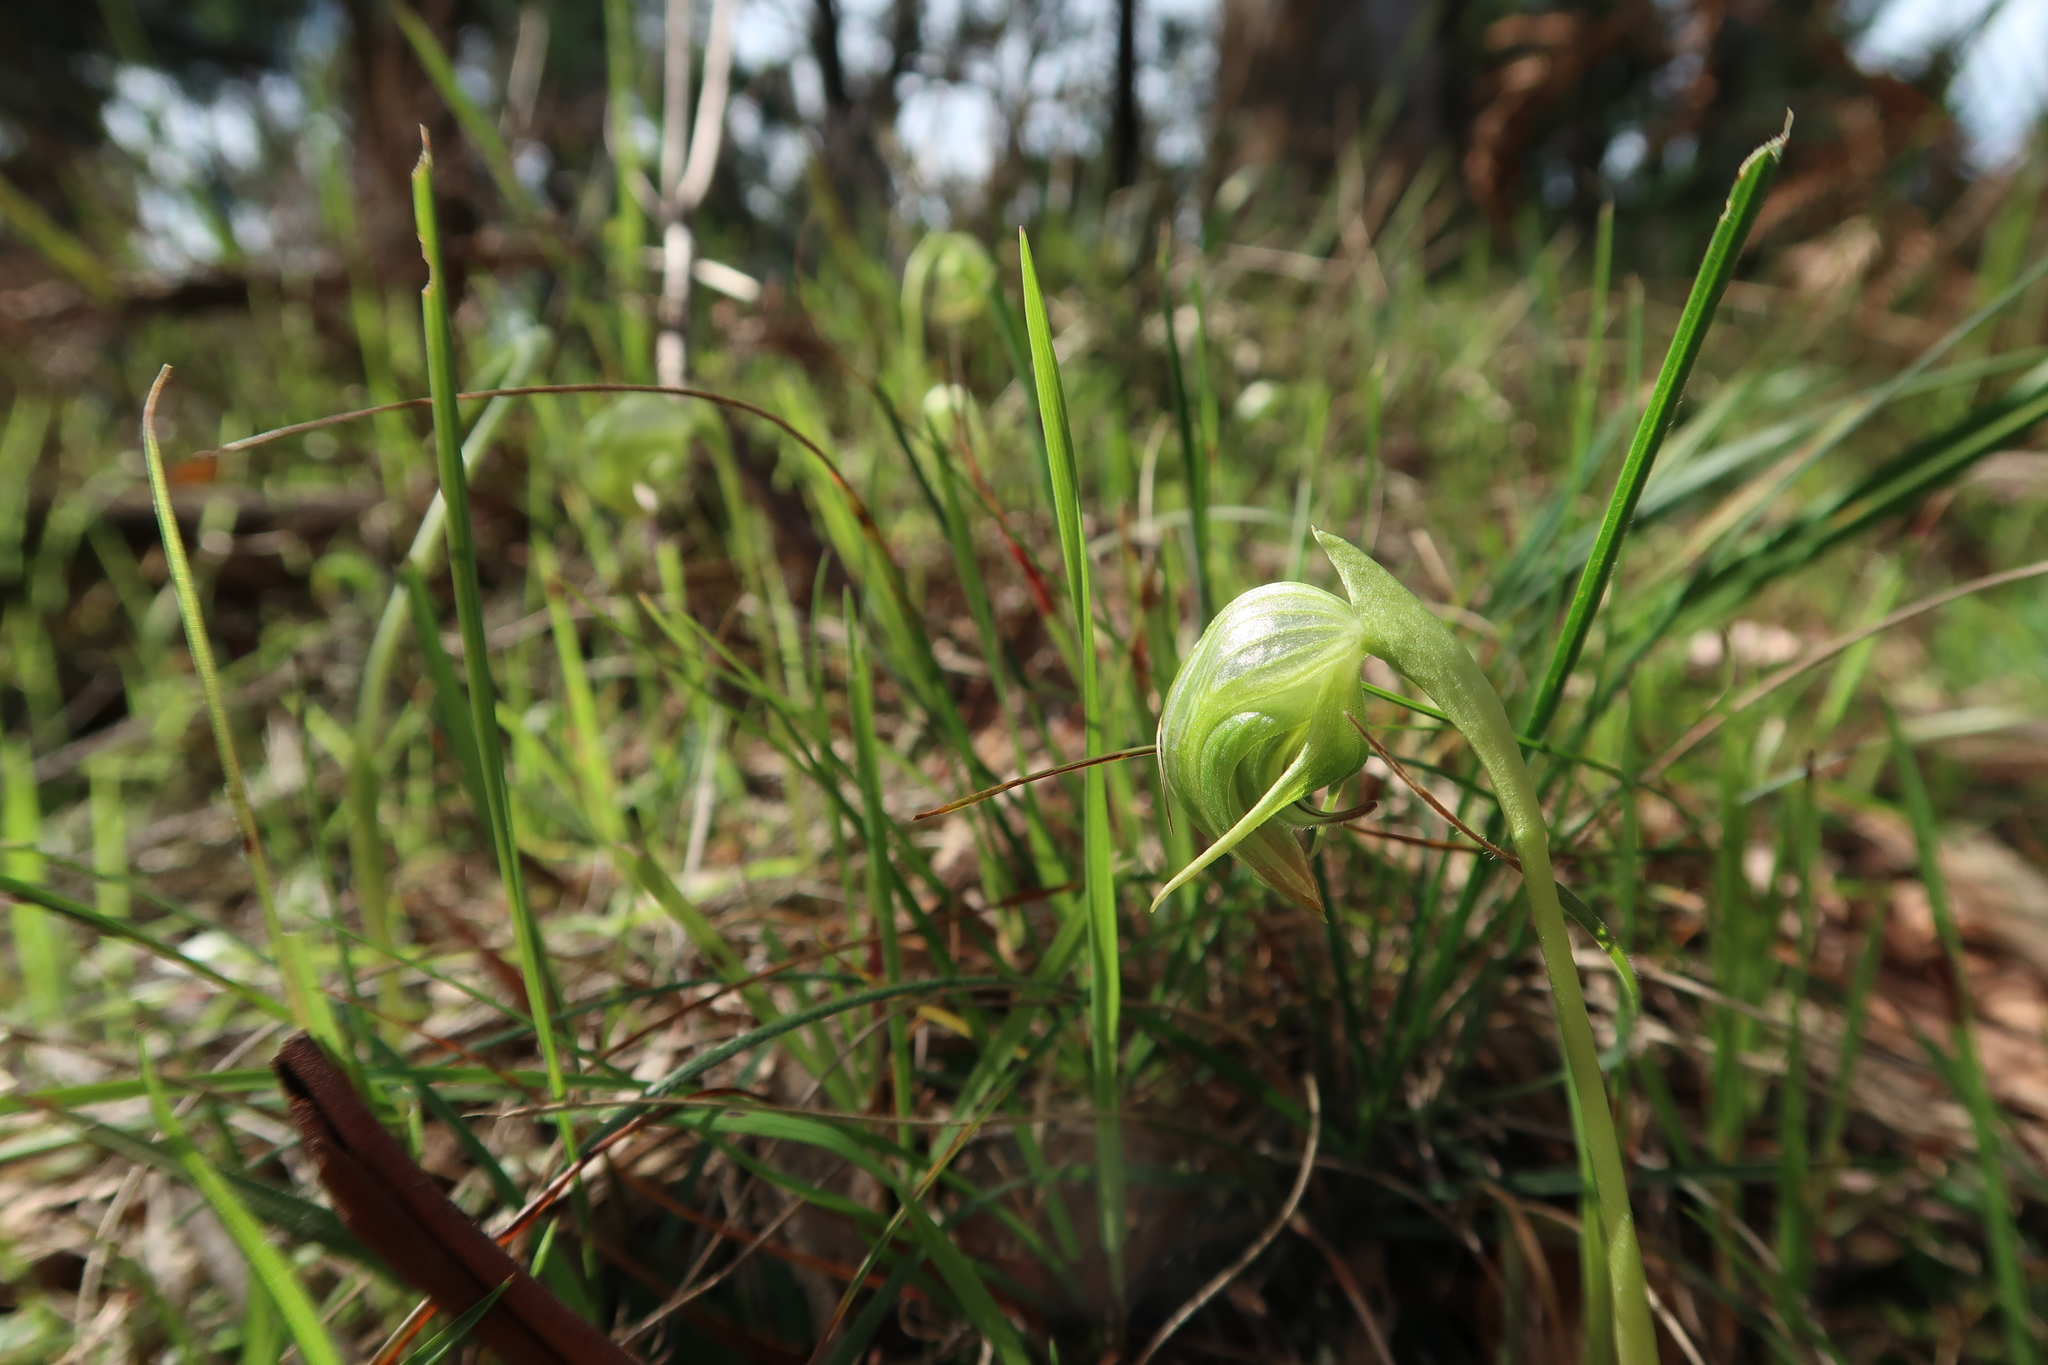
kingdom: Plantae
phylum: Tracheophyta
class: Liliopsida
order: Asparagales
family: Orchidaceae
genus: Pterostylis
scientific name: Pterostylis nutans
